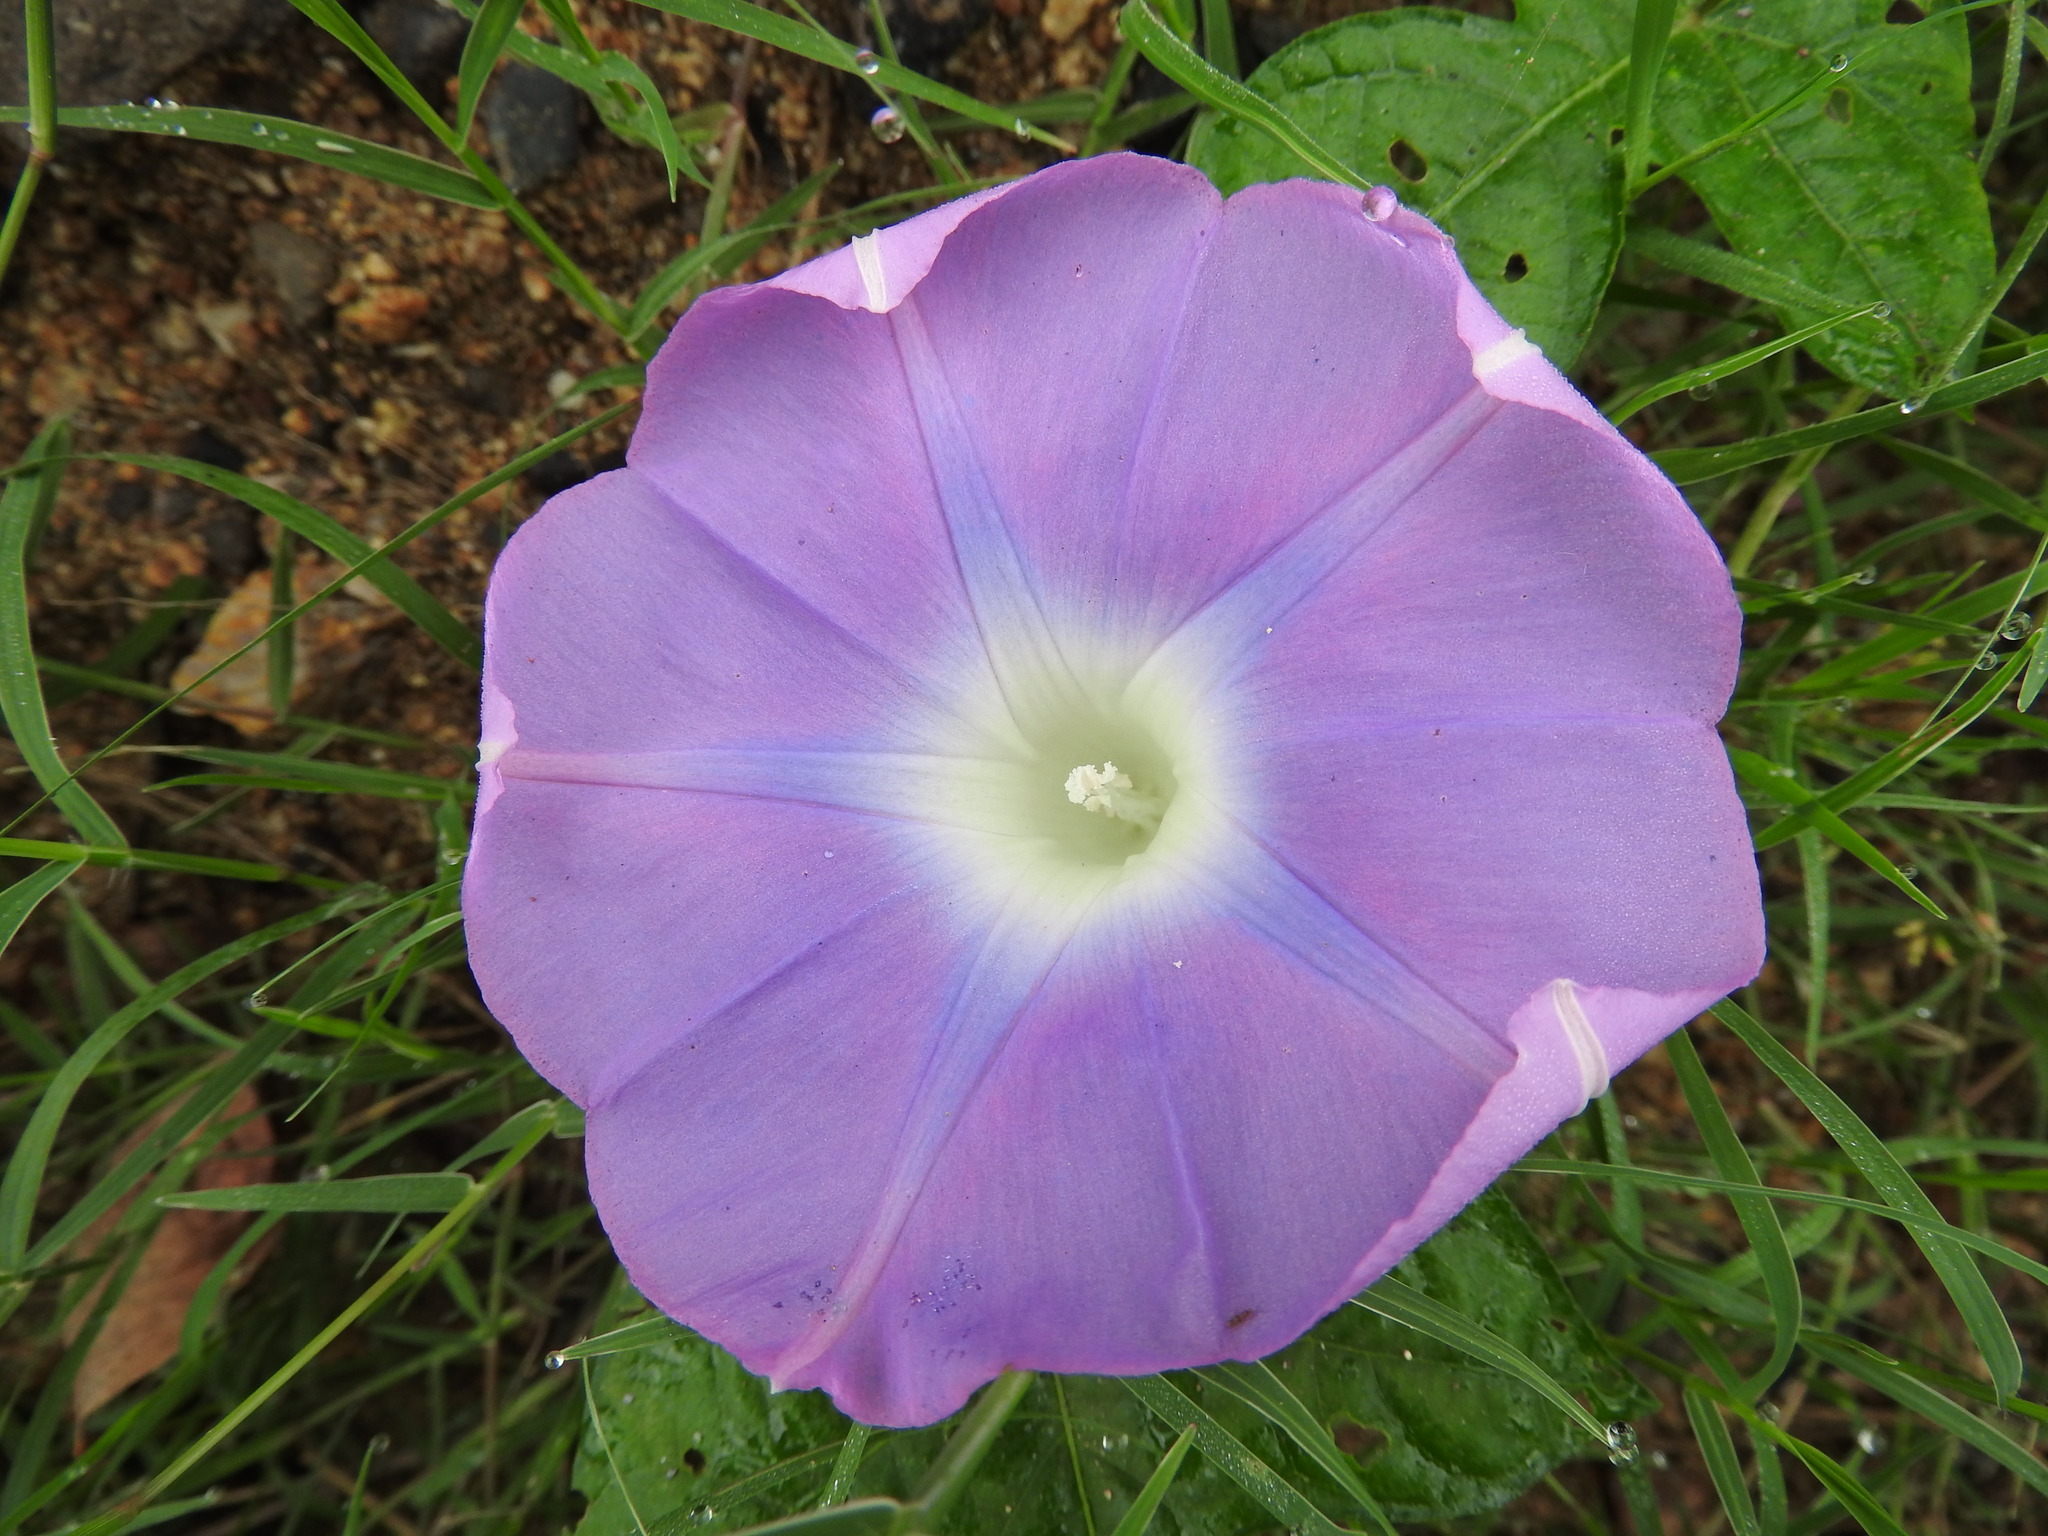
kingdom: Plantae
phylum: Tracheophyta
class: Magnoliopsida
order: Solanales
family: Convolvulaceae
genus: Ipomoea
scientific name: Ipomoea nil
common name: Japanese morning-glory
